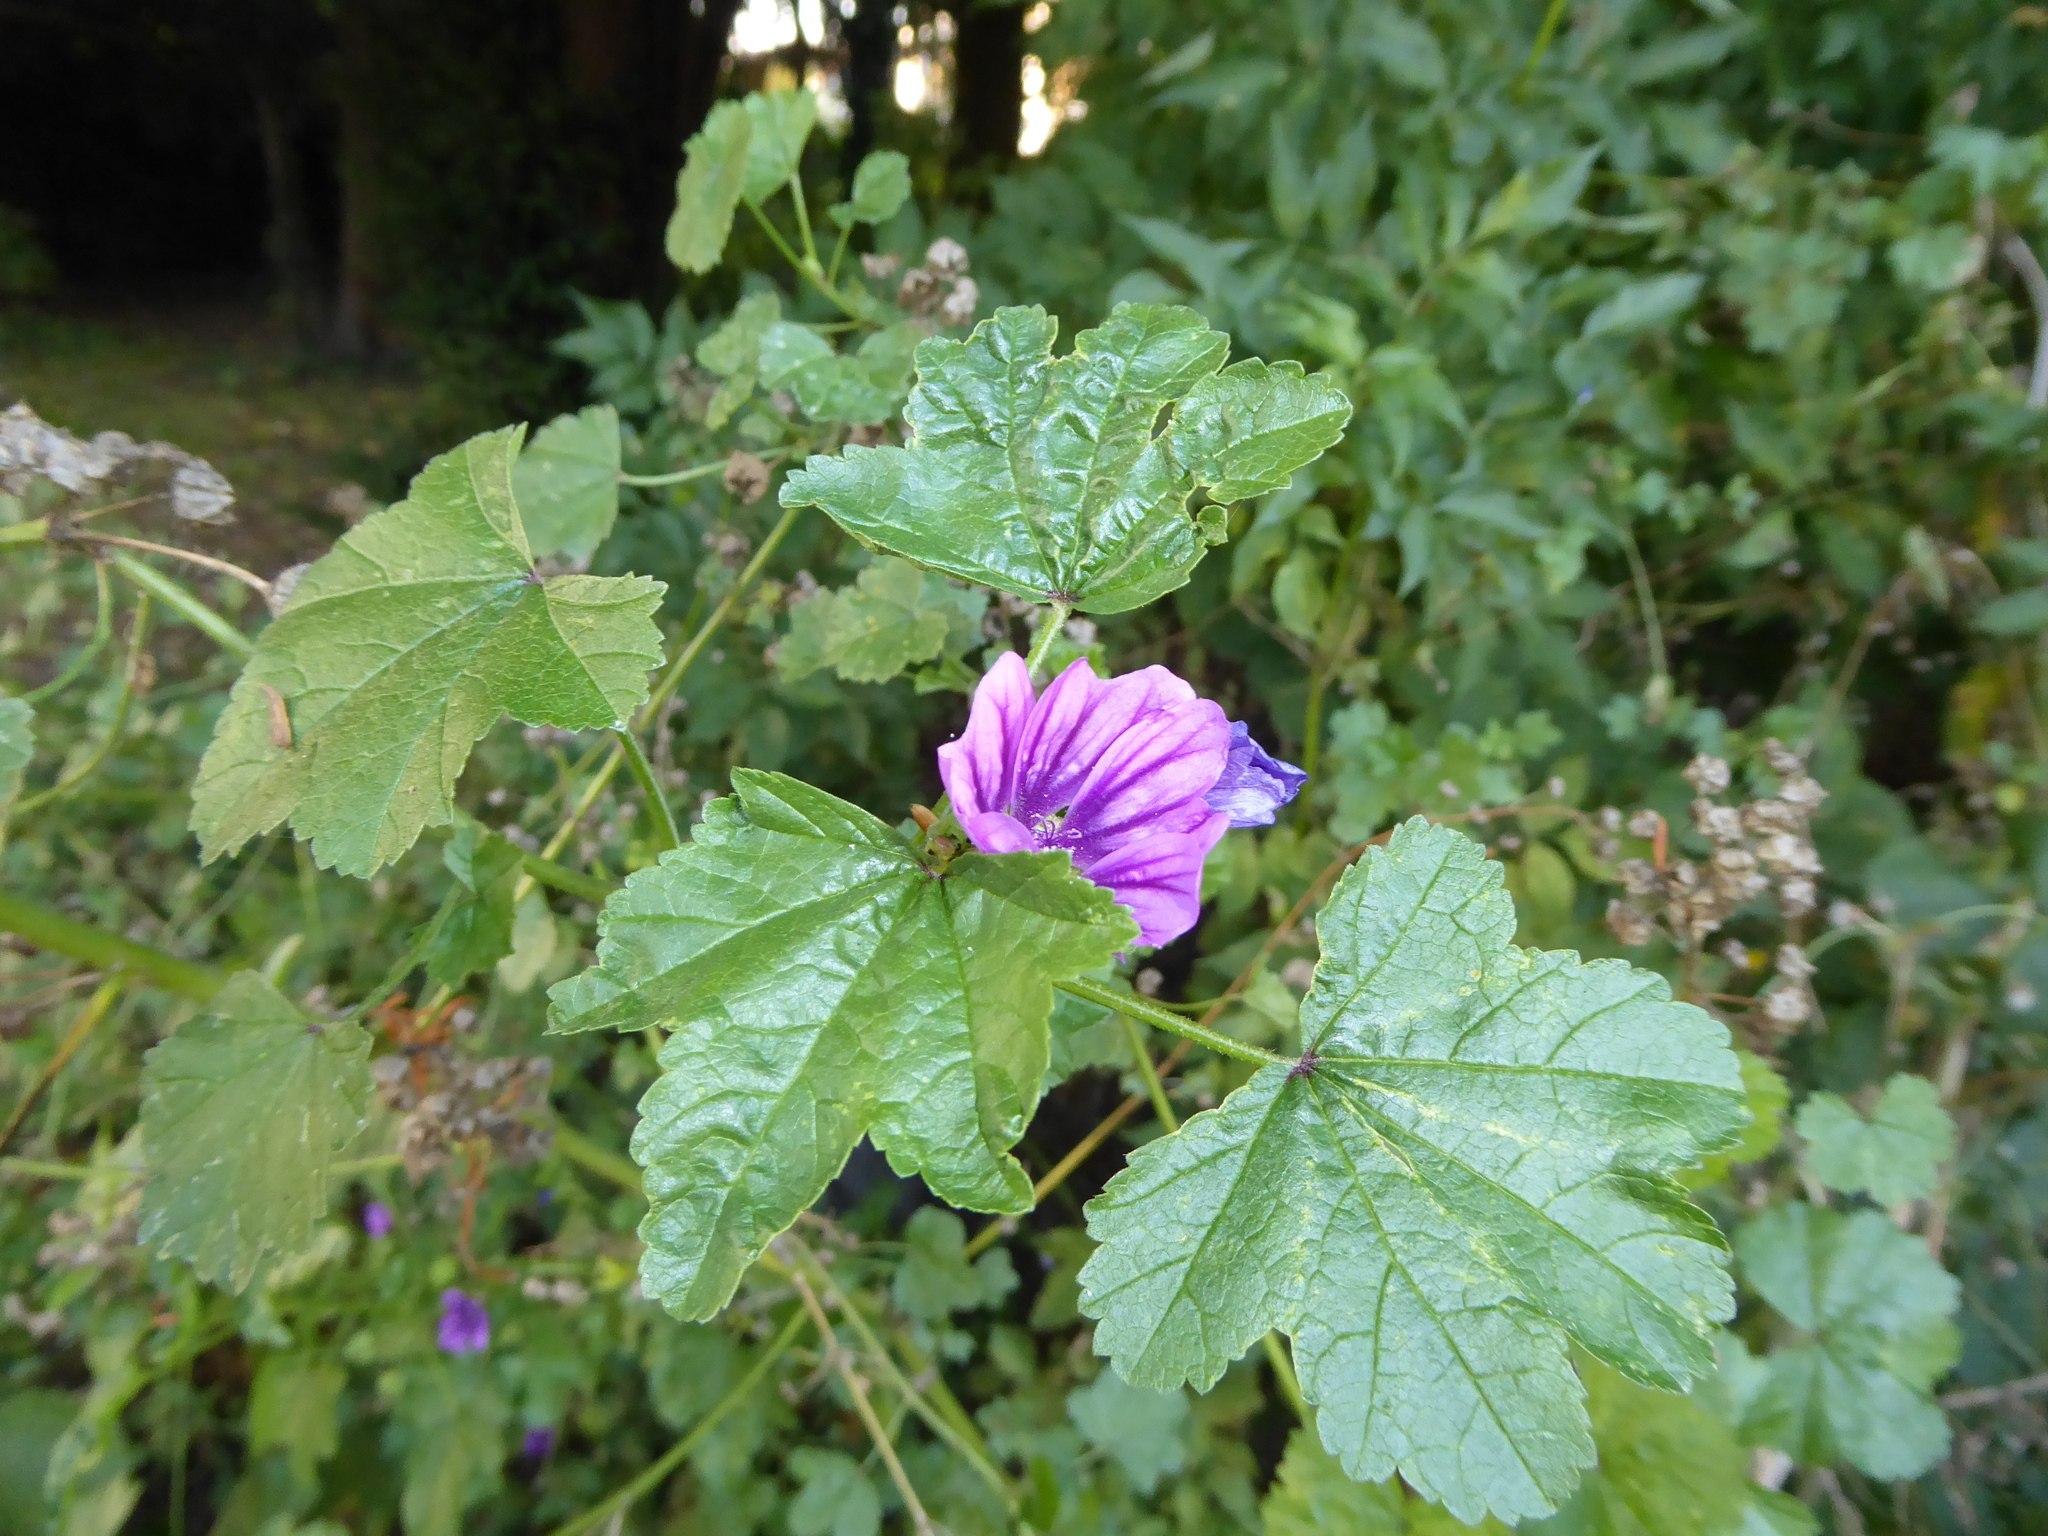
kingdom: Plantae
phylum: Tracheophyta
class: Magnoliopsida
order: Malvales
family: Malvaceae
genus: Malva
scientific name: Malva sylvestris
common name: Common mallow
